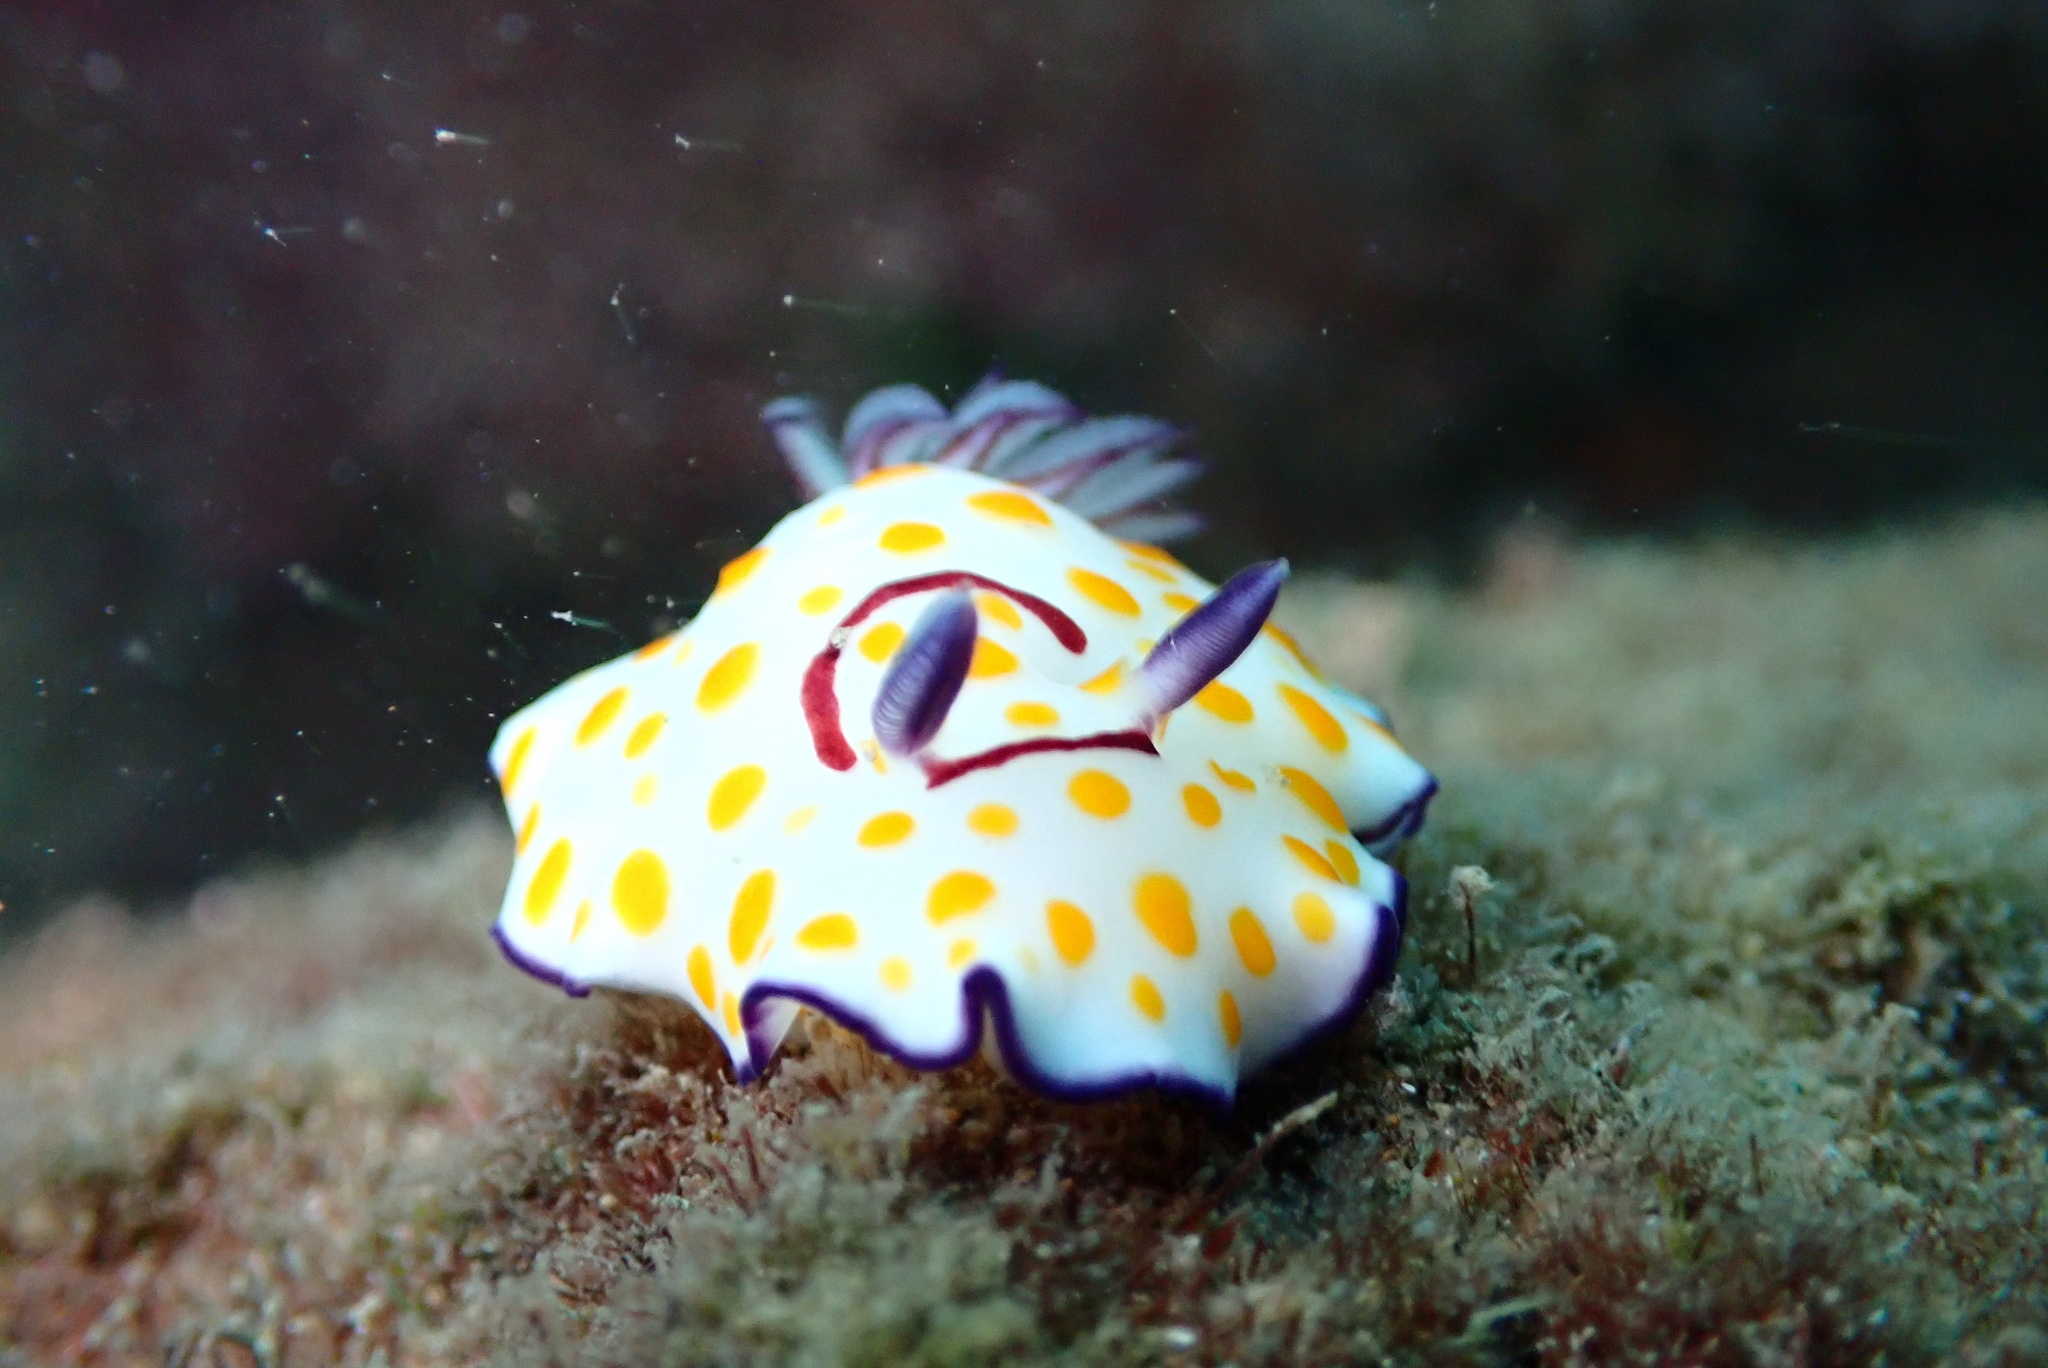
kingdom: Animalia
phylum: Mollusca
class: Gastropoda
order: Nudibranchia
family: Chromodorididae
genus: Goniobranchus
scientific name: Goniobranchus annulatus
